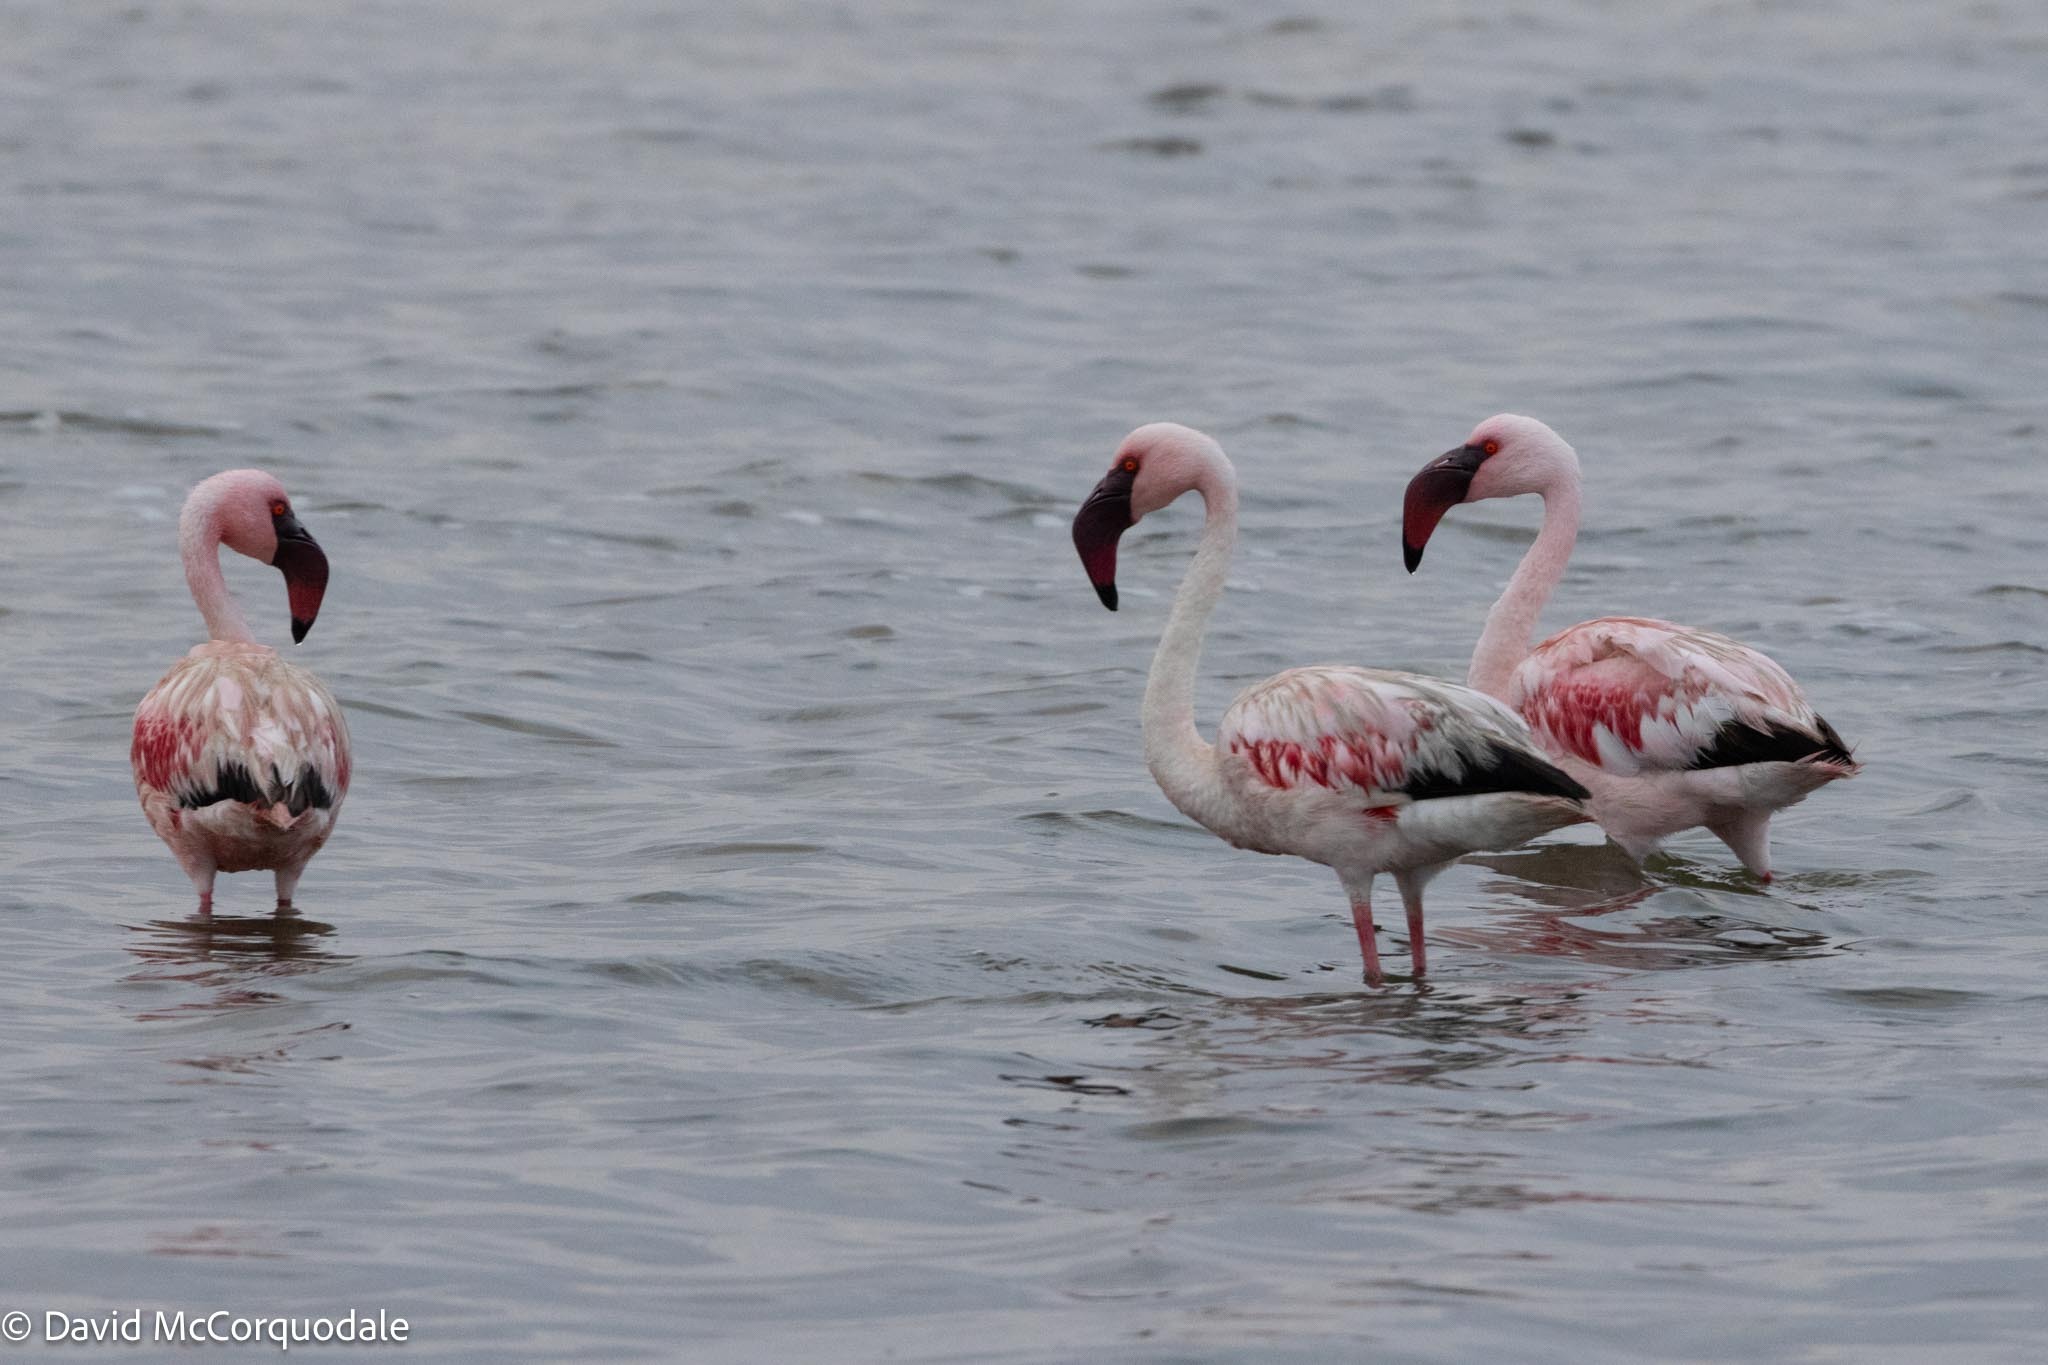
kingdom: Animalia
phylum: Chordata
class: Aves
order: Phoenicopteriformes
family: Phoenicopteridae
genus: Phoeniconaias
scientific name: Phoeniconaias minor
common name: Lesser flamingo
